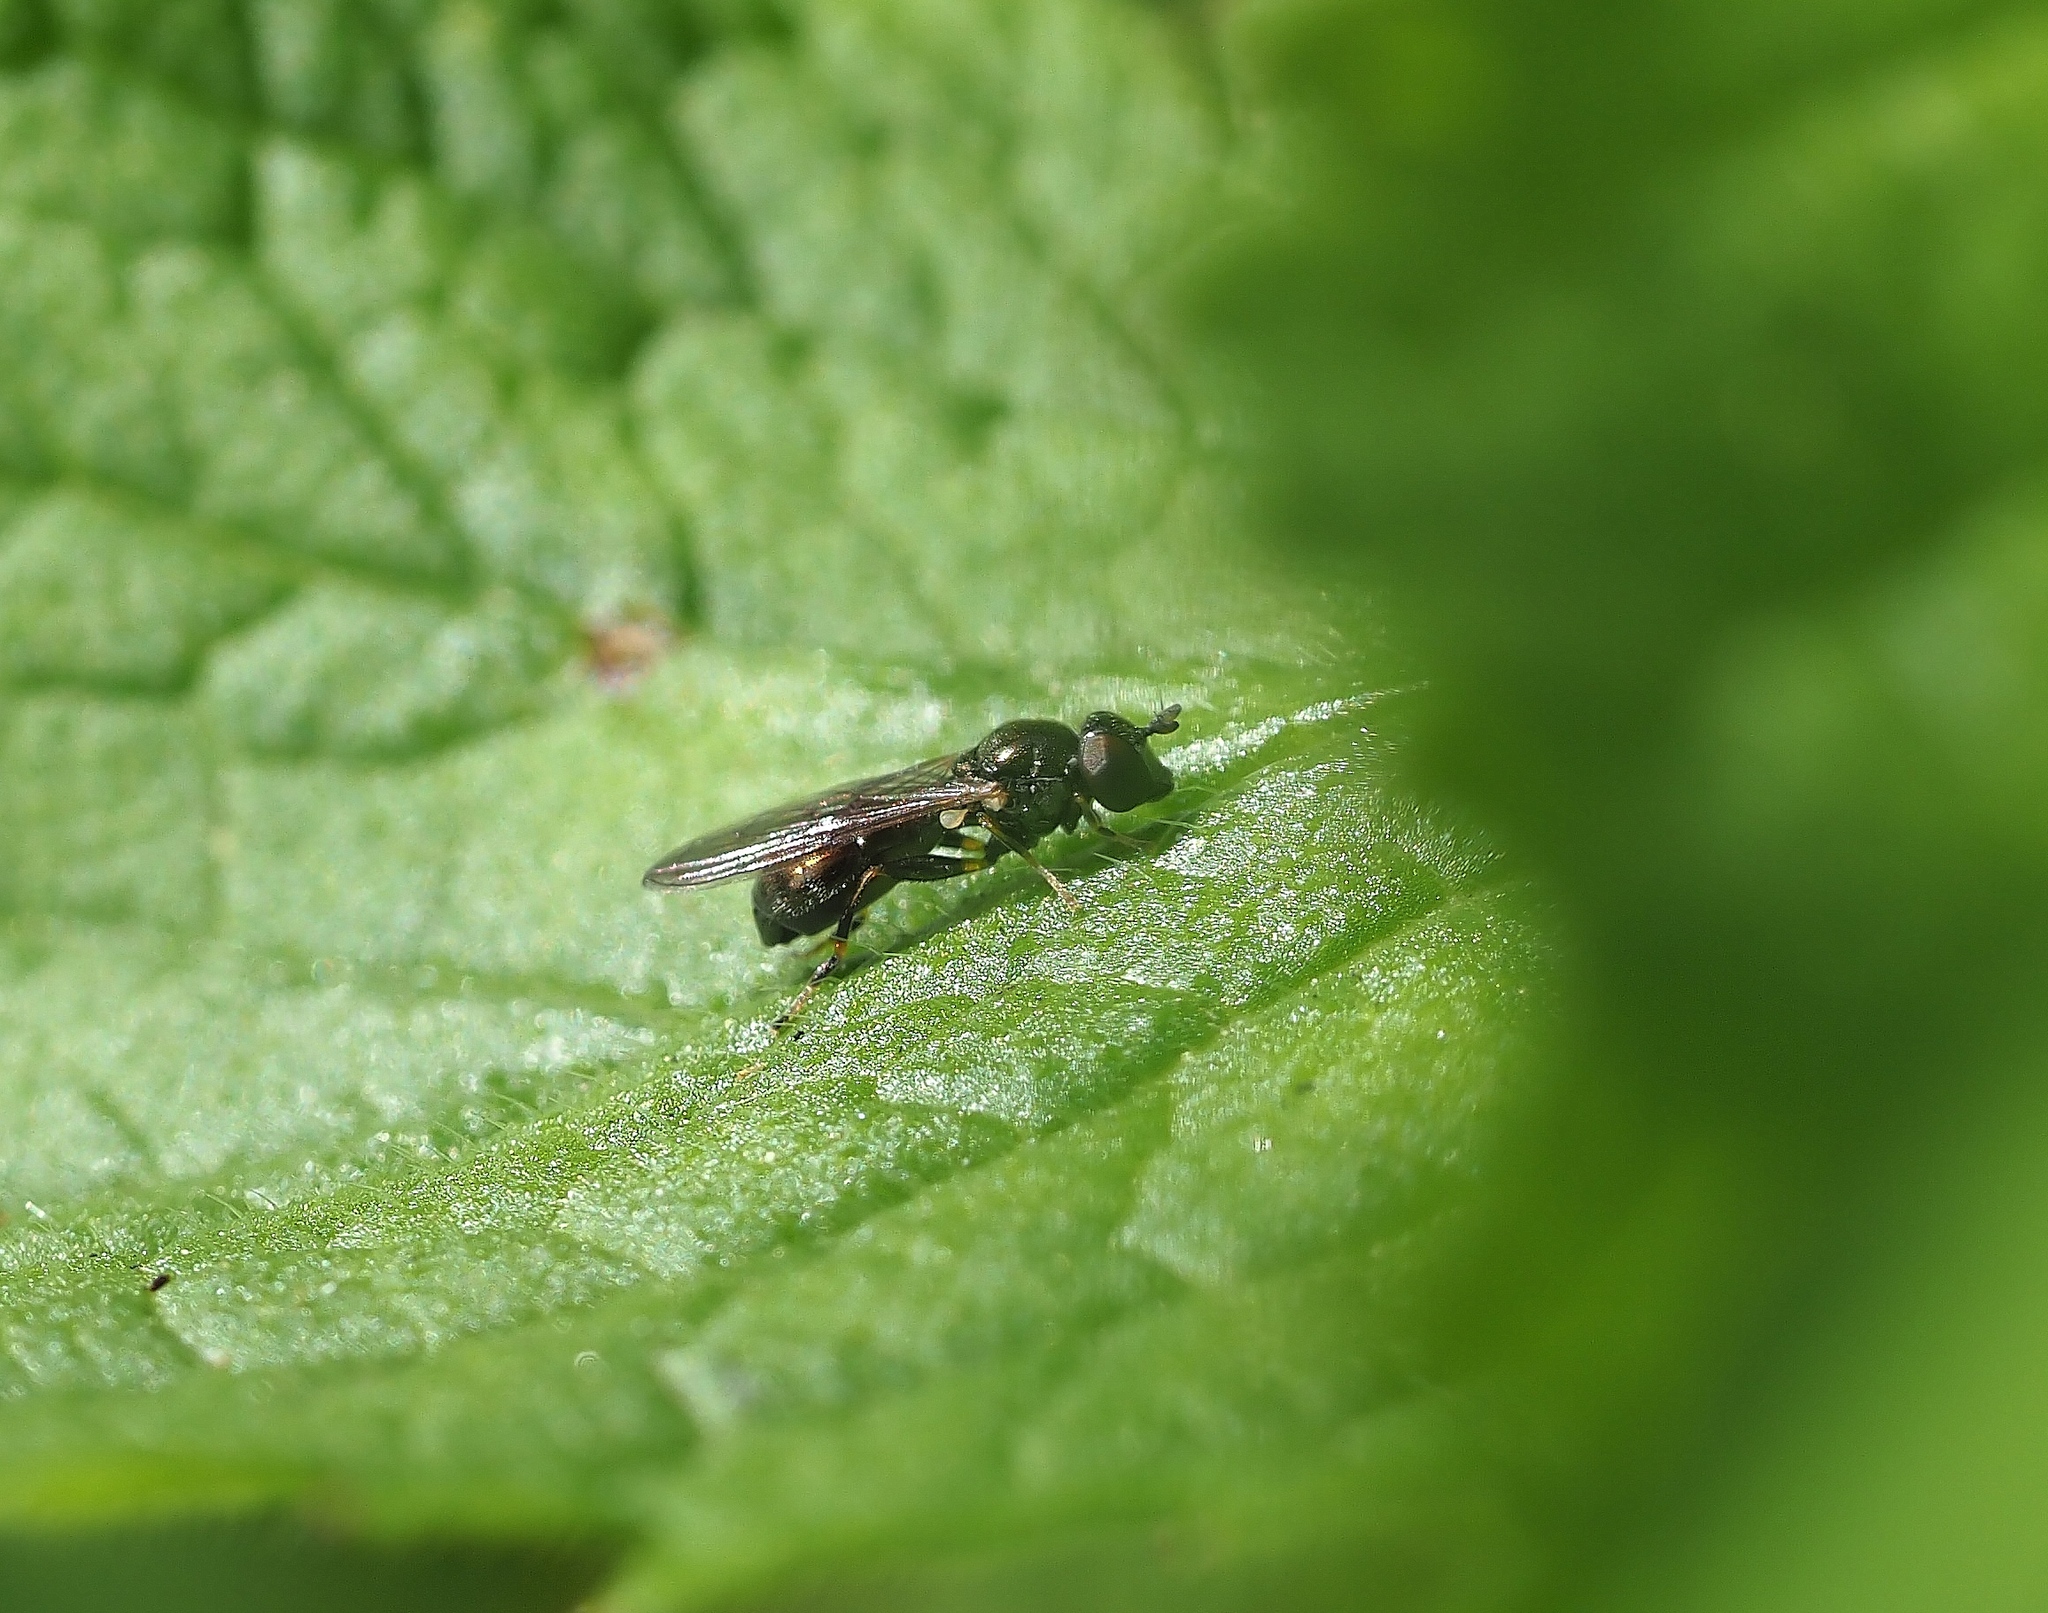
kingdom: Animalia
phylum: Arthropoda
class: Insecta
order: Diptera
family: Syrphidae
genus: Neoascia
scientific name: Neoascia
